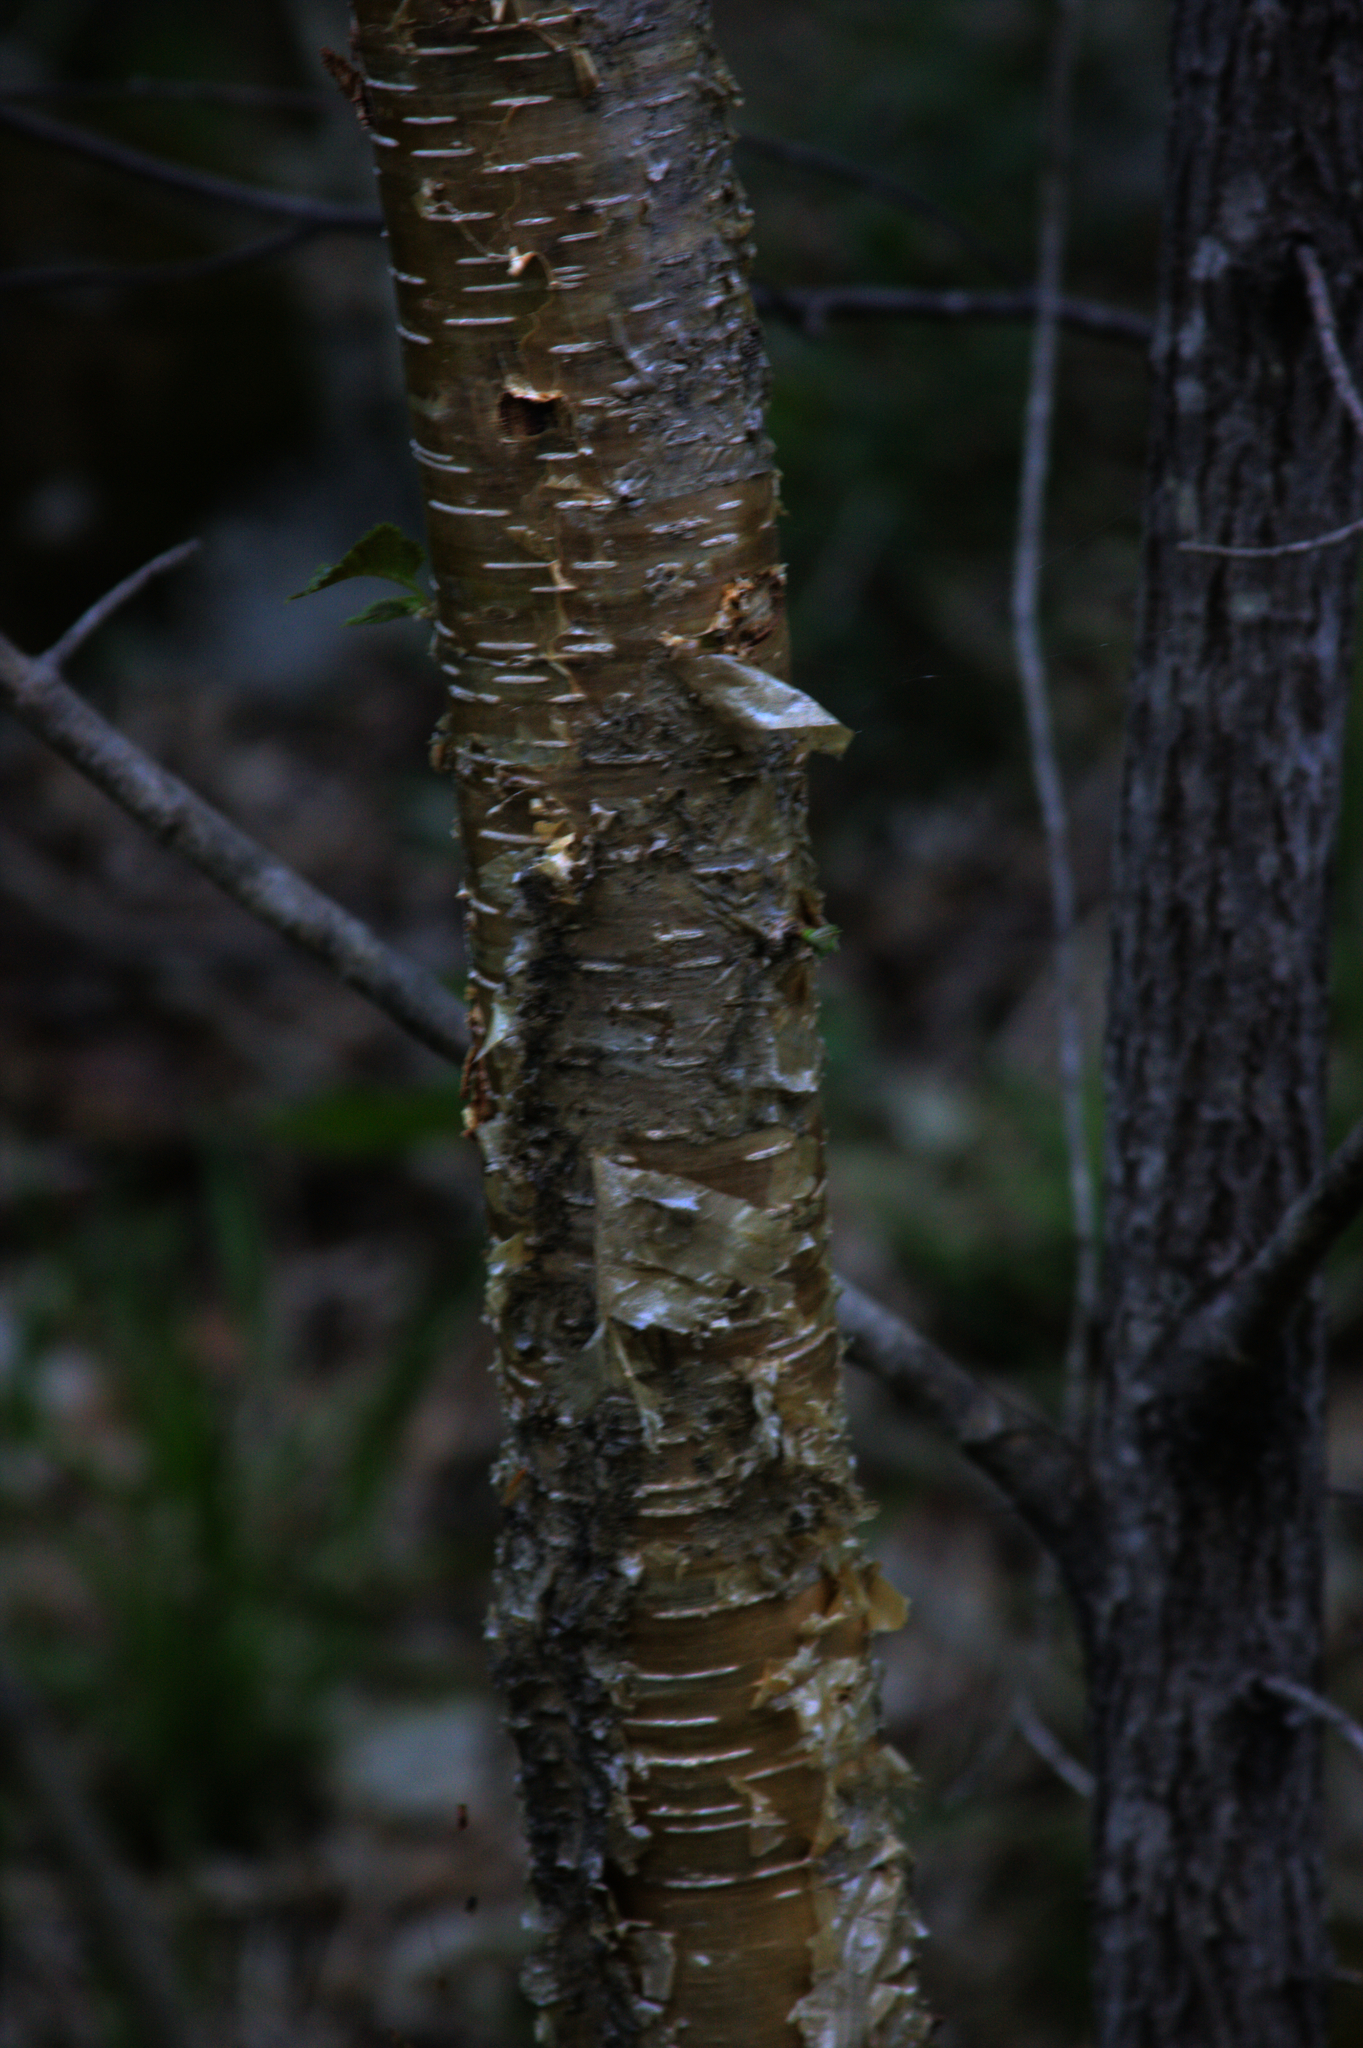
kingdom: Plantae
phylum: Tracheophyta
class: Magnoliopsida
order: Fagales
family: Betulaceae
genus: Betula
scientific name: Betula alleghaniensis
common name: Yellow birch
